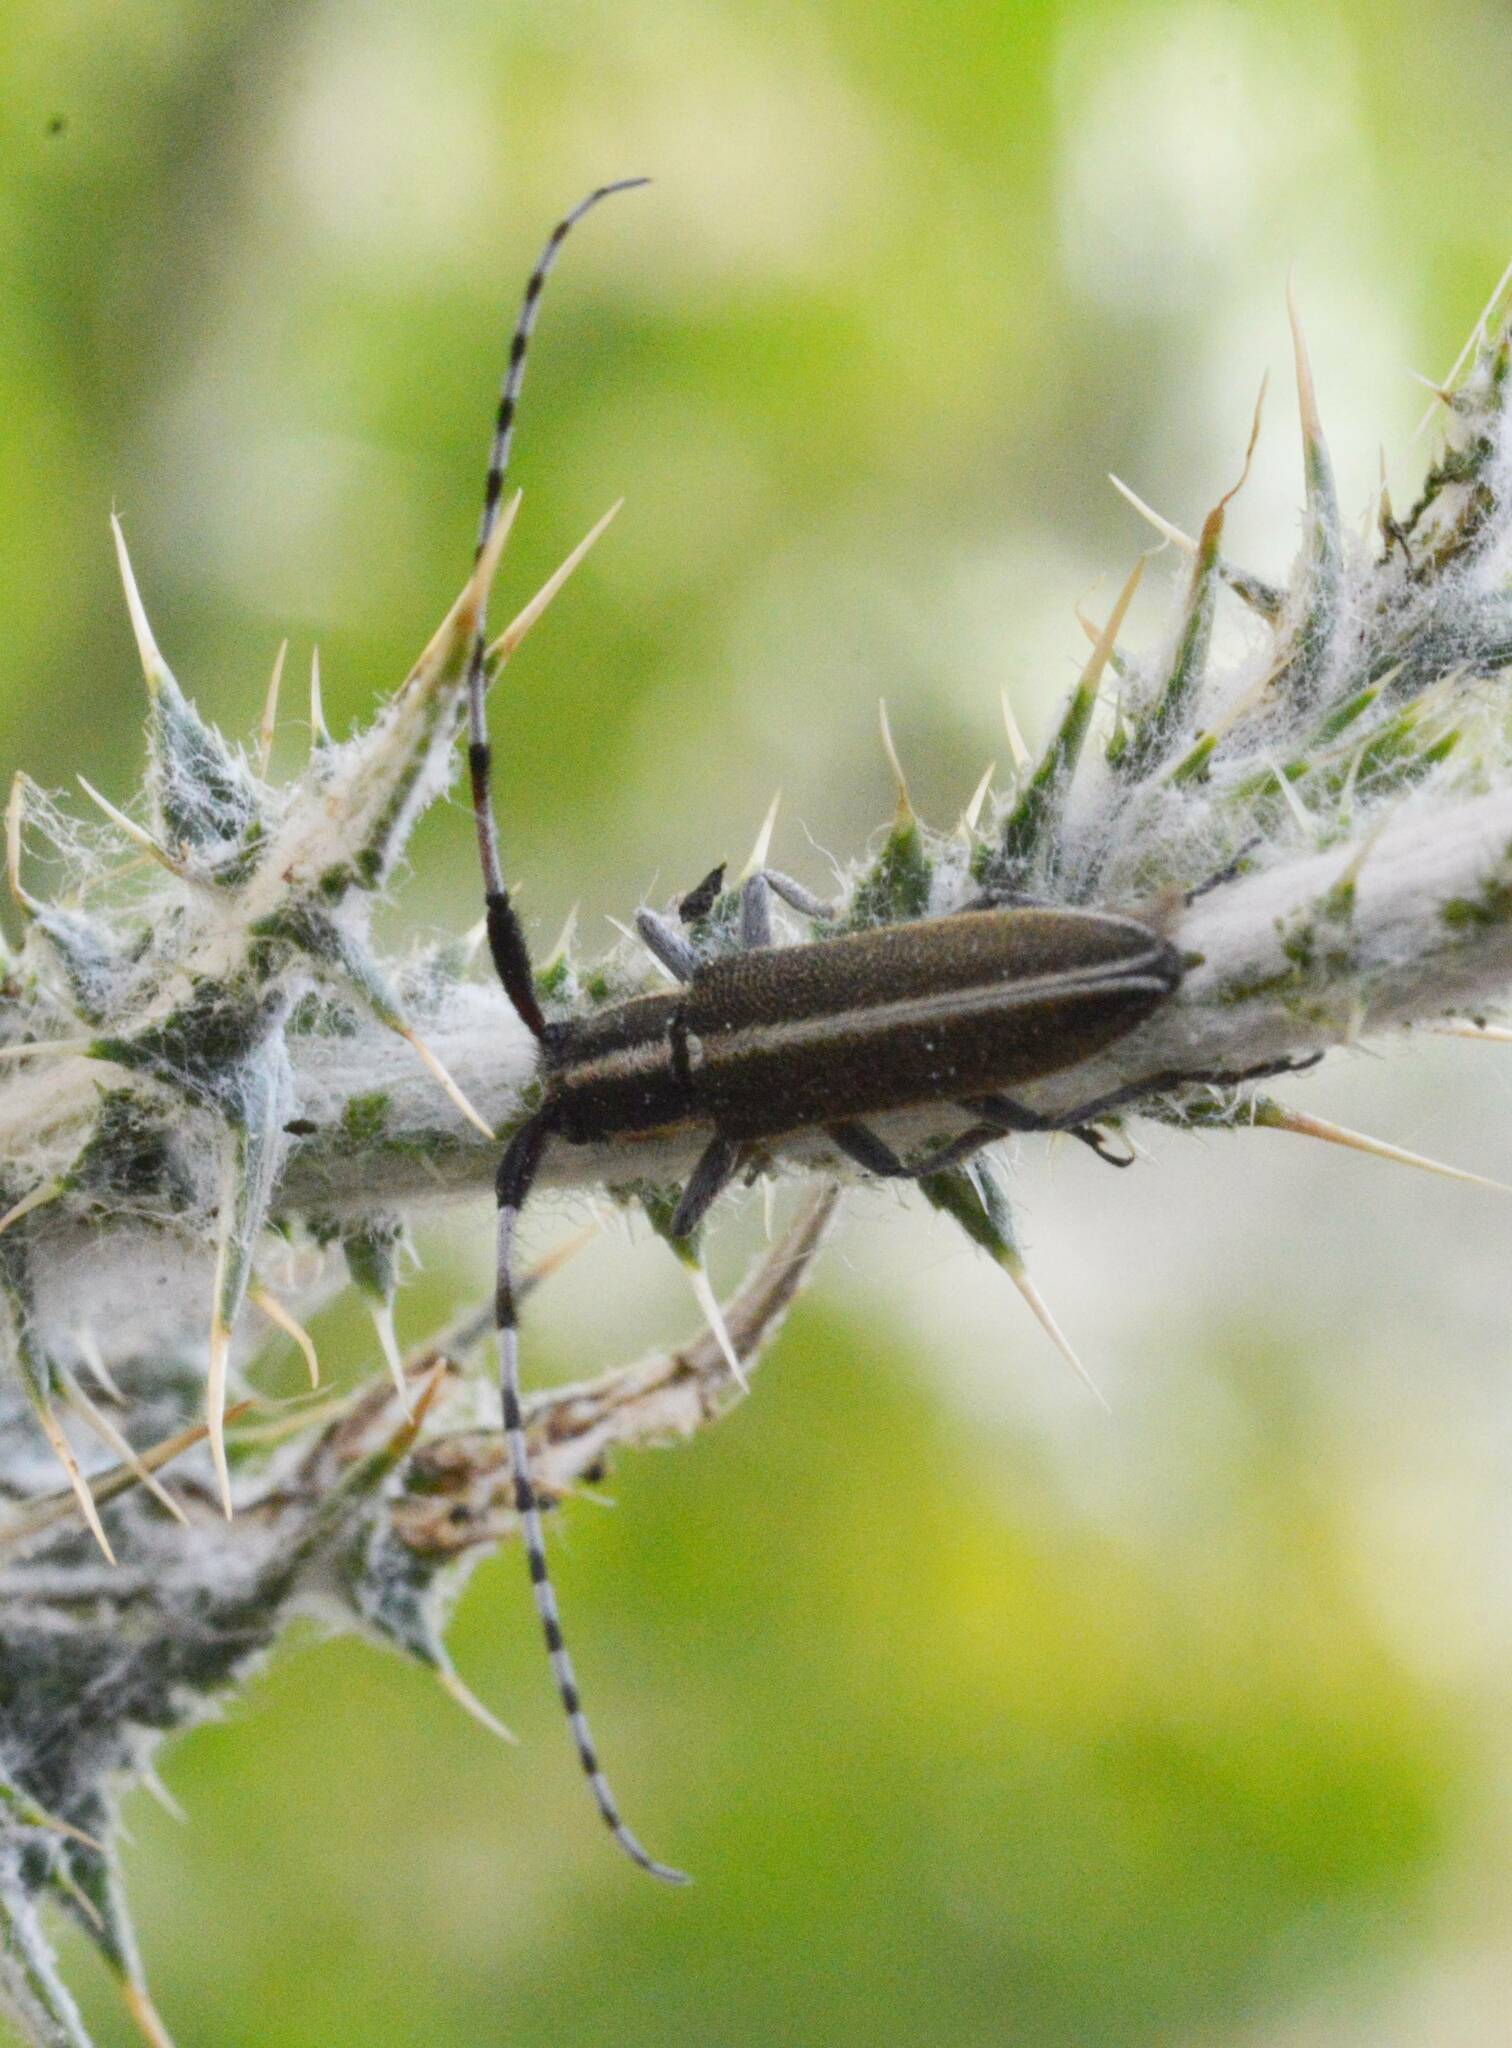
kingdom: Animalia
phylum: Arthropoda
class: Insecta
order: Coleoptera
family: Cerambycidae
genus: Agapanthia
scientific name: Agapanthia suturalis
